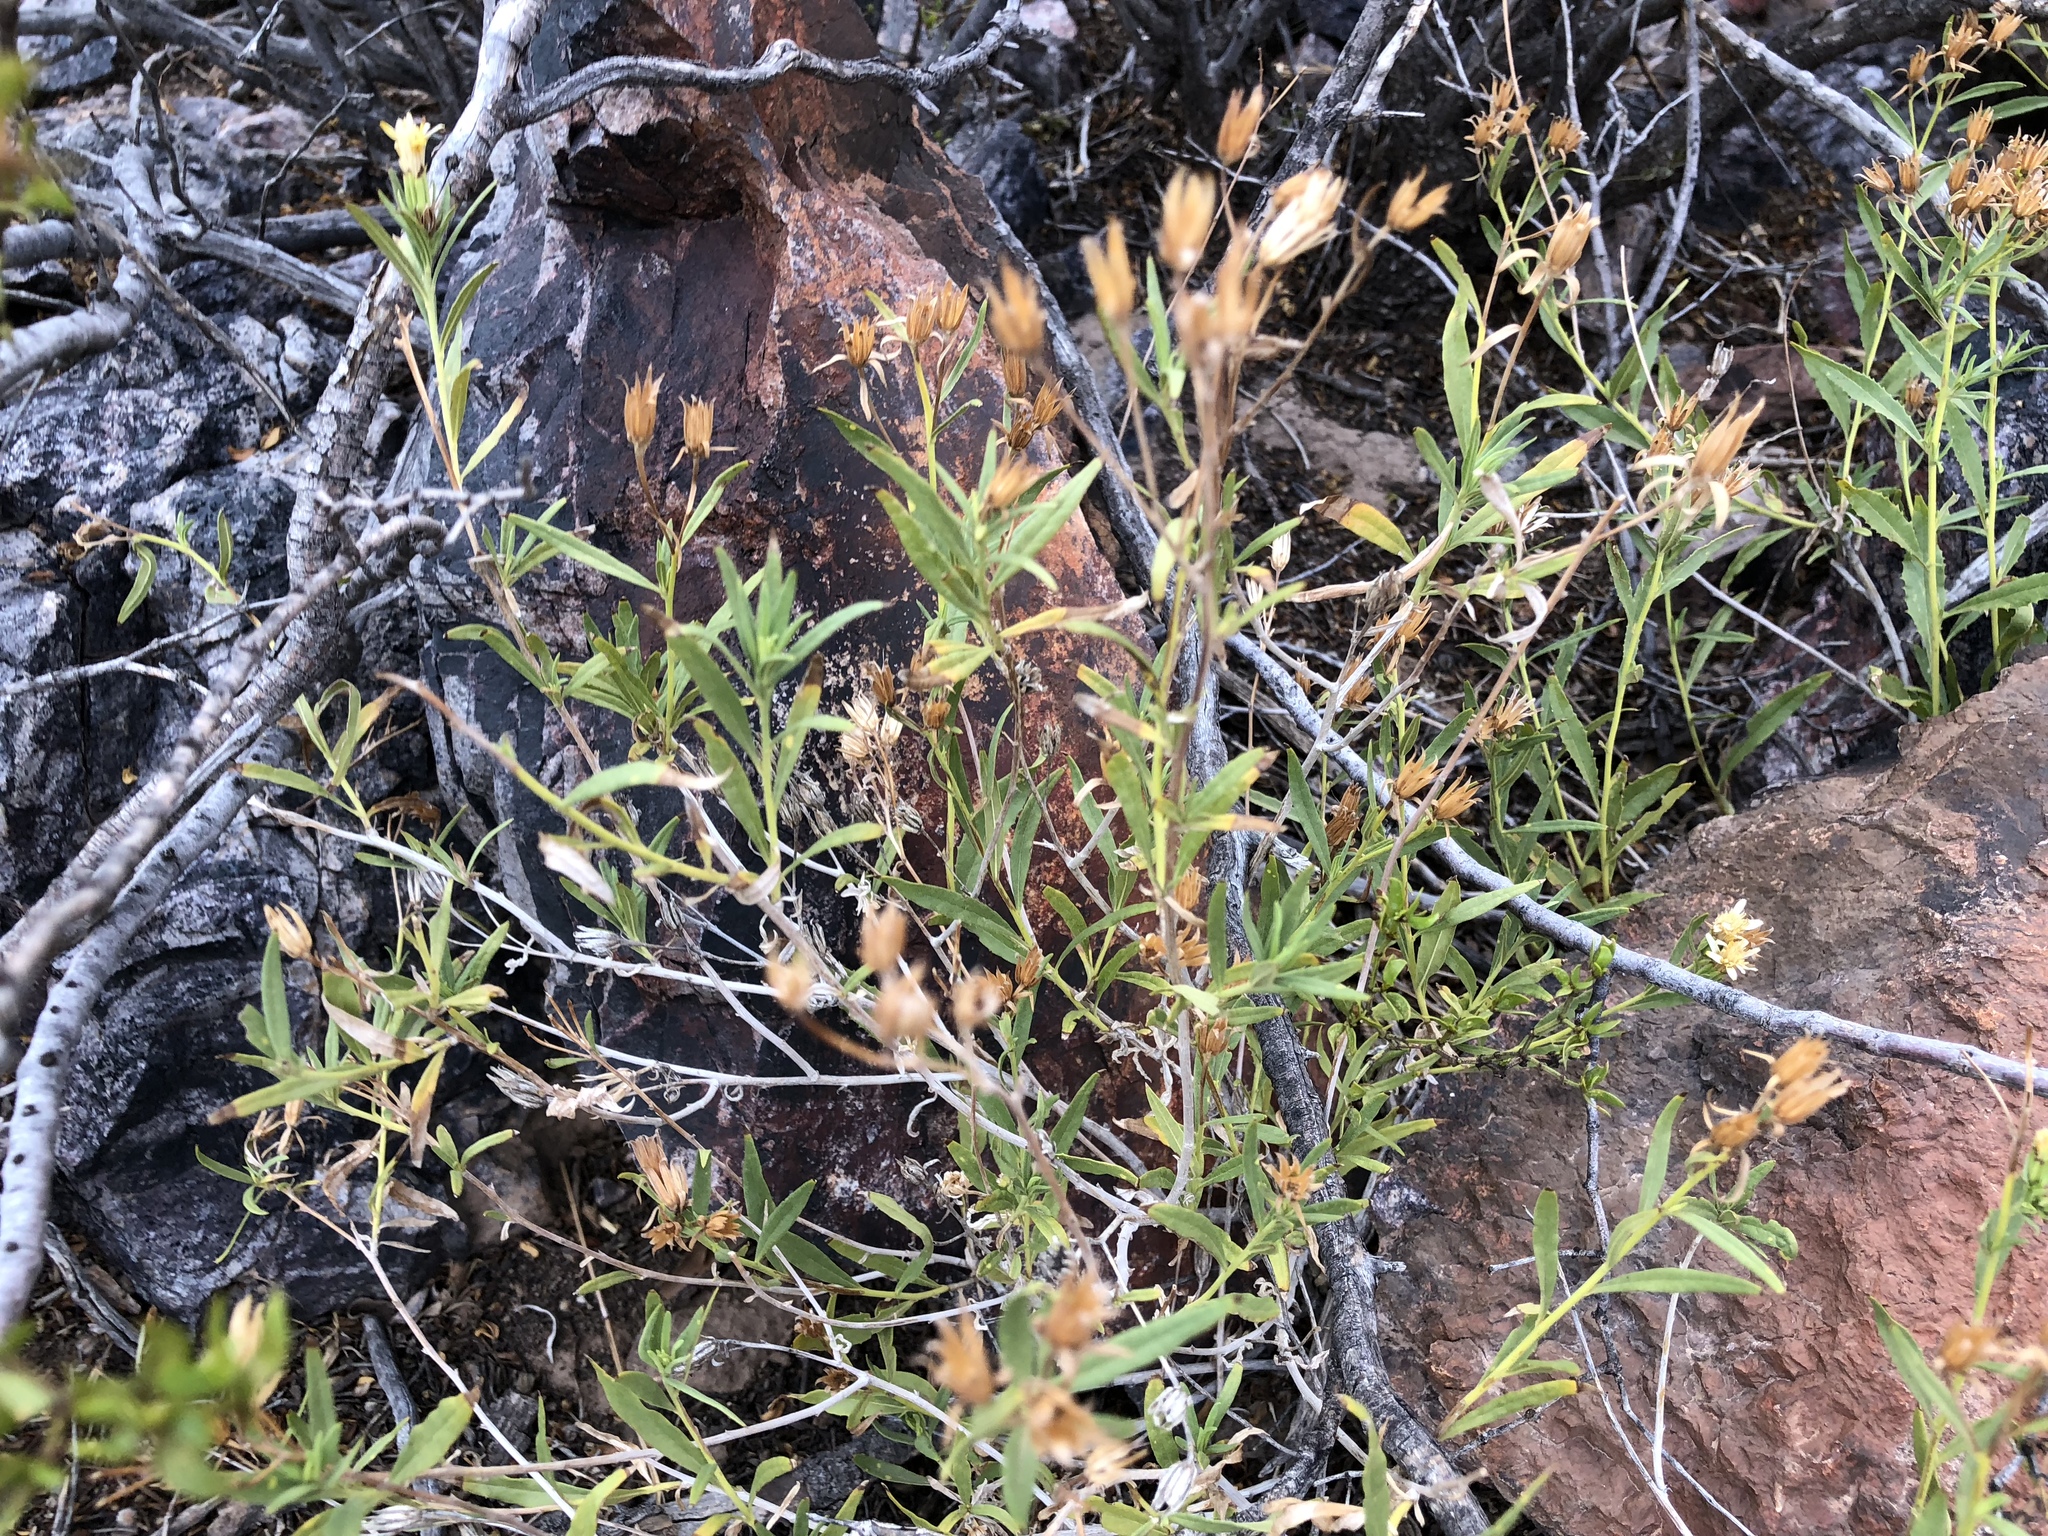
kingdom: Plantae
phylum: Tracheophyta
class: Magnoliopsida
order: Asterales
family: Asteraceae
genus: Trixis
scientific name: Trixis californica
